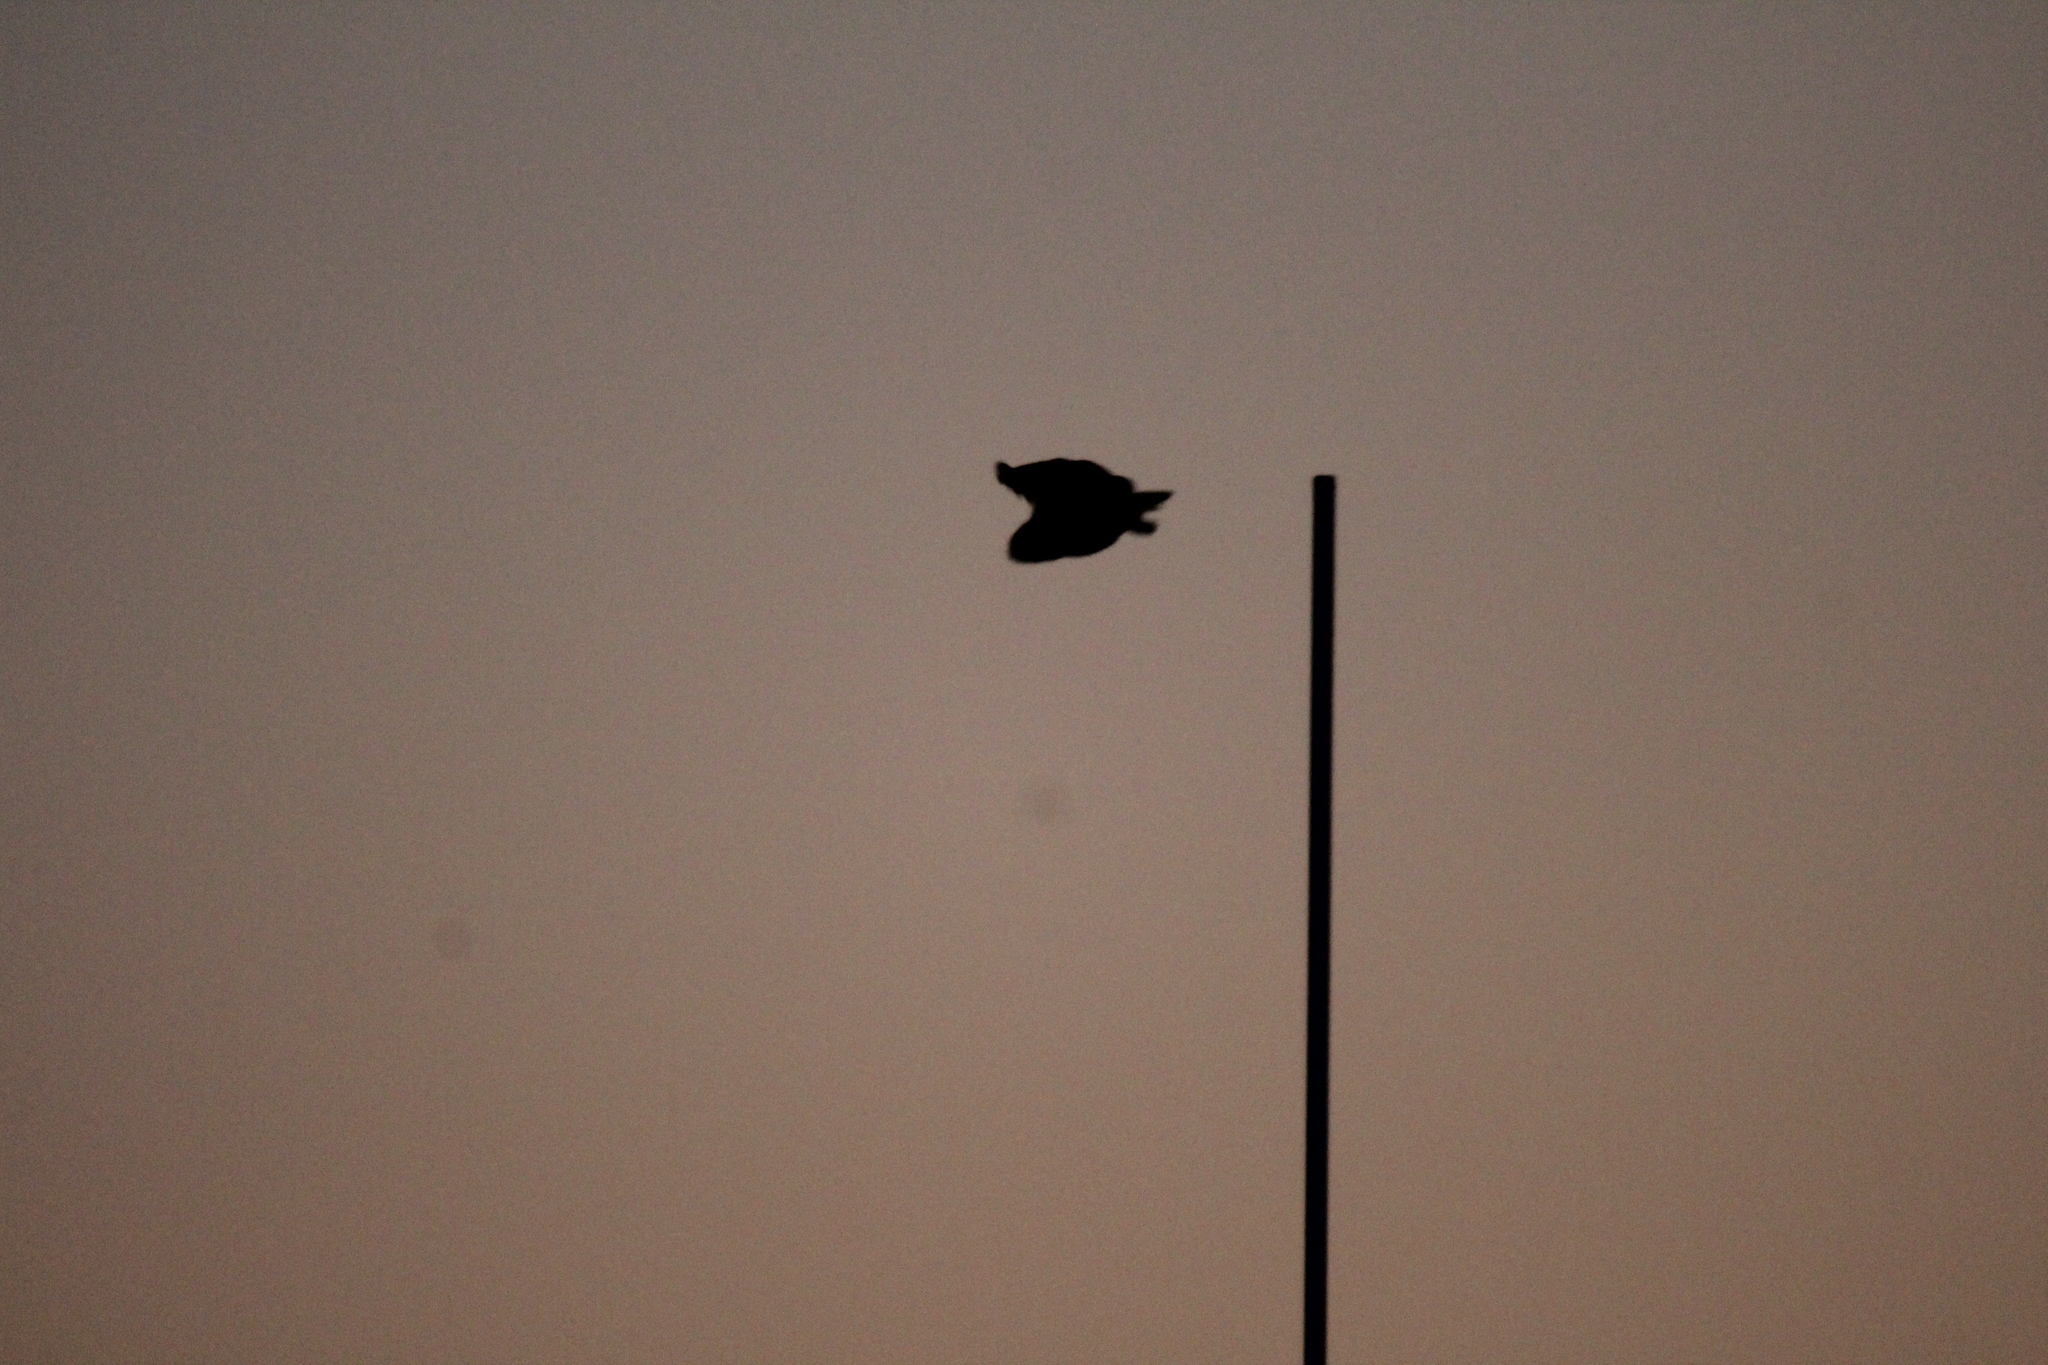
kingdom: Animalia
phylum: Chordata
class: Aves
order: Strigiformes
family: Strigidae
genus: Bubo
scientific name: Bubo virginianus
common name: Great horned owl
